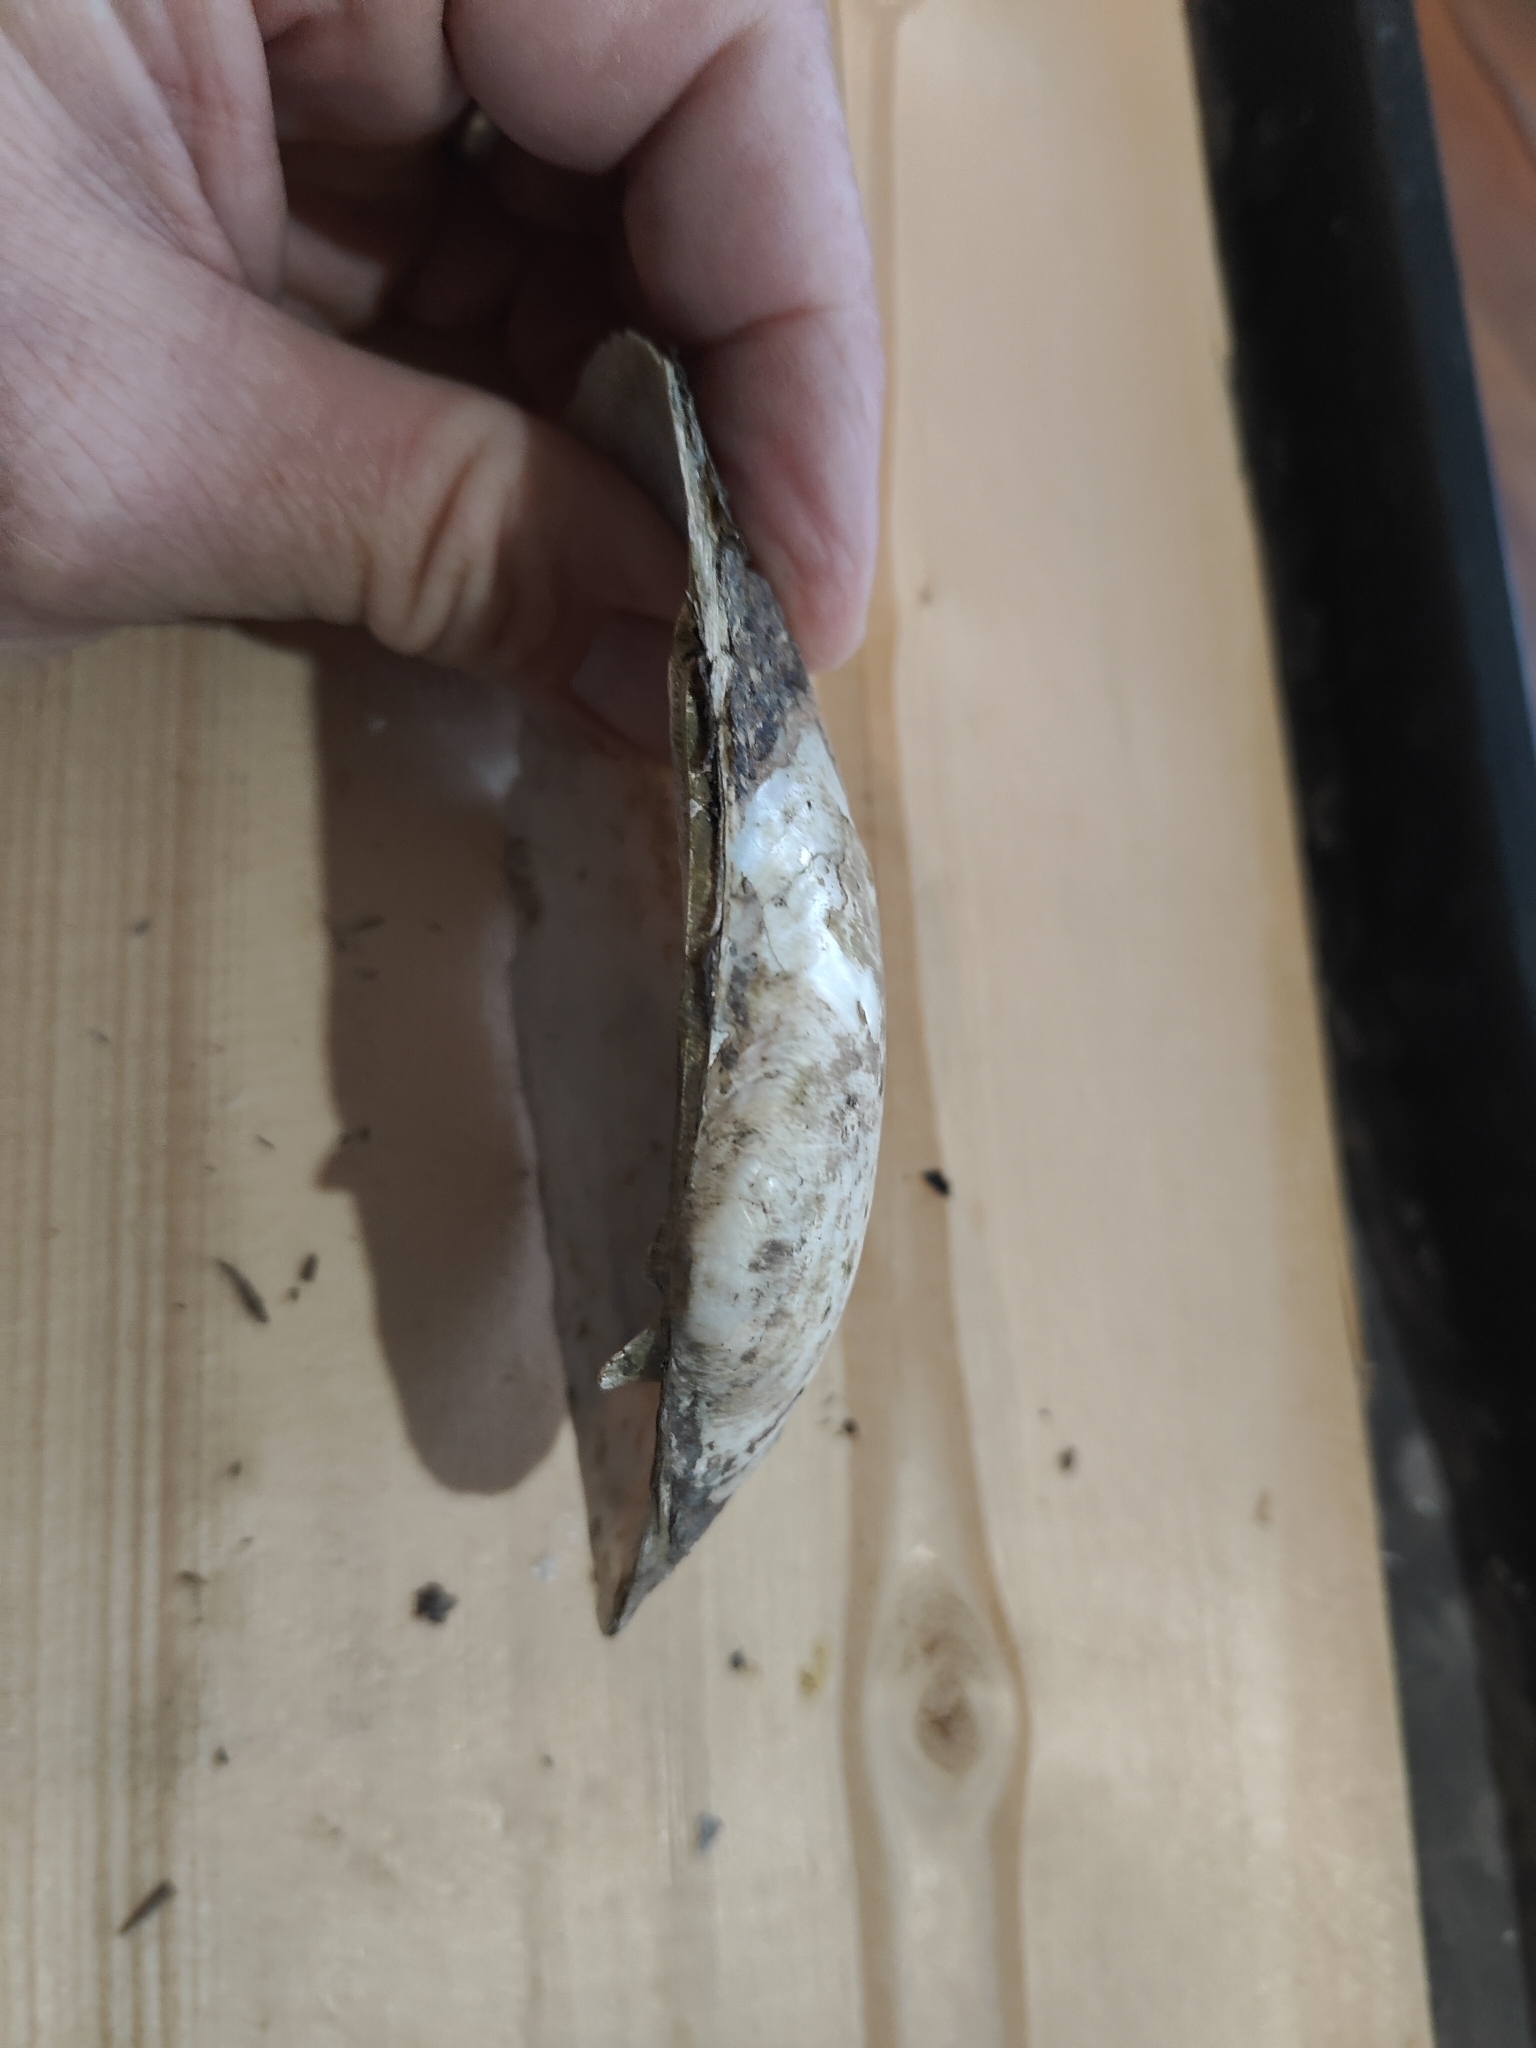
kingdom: Animalia
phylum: Mollusca
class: Bivalvia
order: Unionida
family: Unionidae
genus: Lampsilis
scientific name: Lampsilis siliquoidea
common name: Fatmucket
